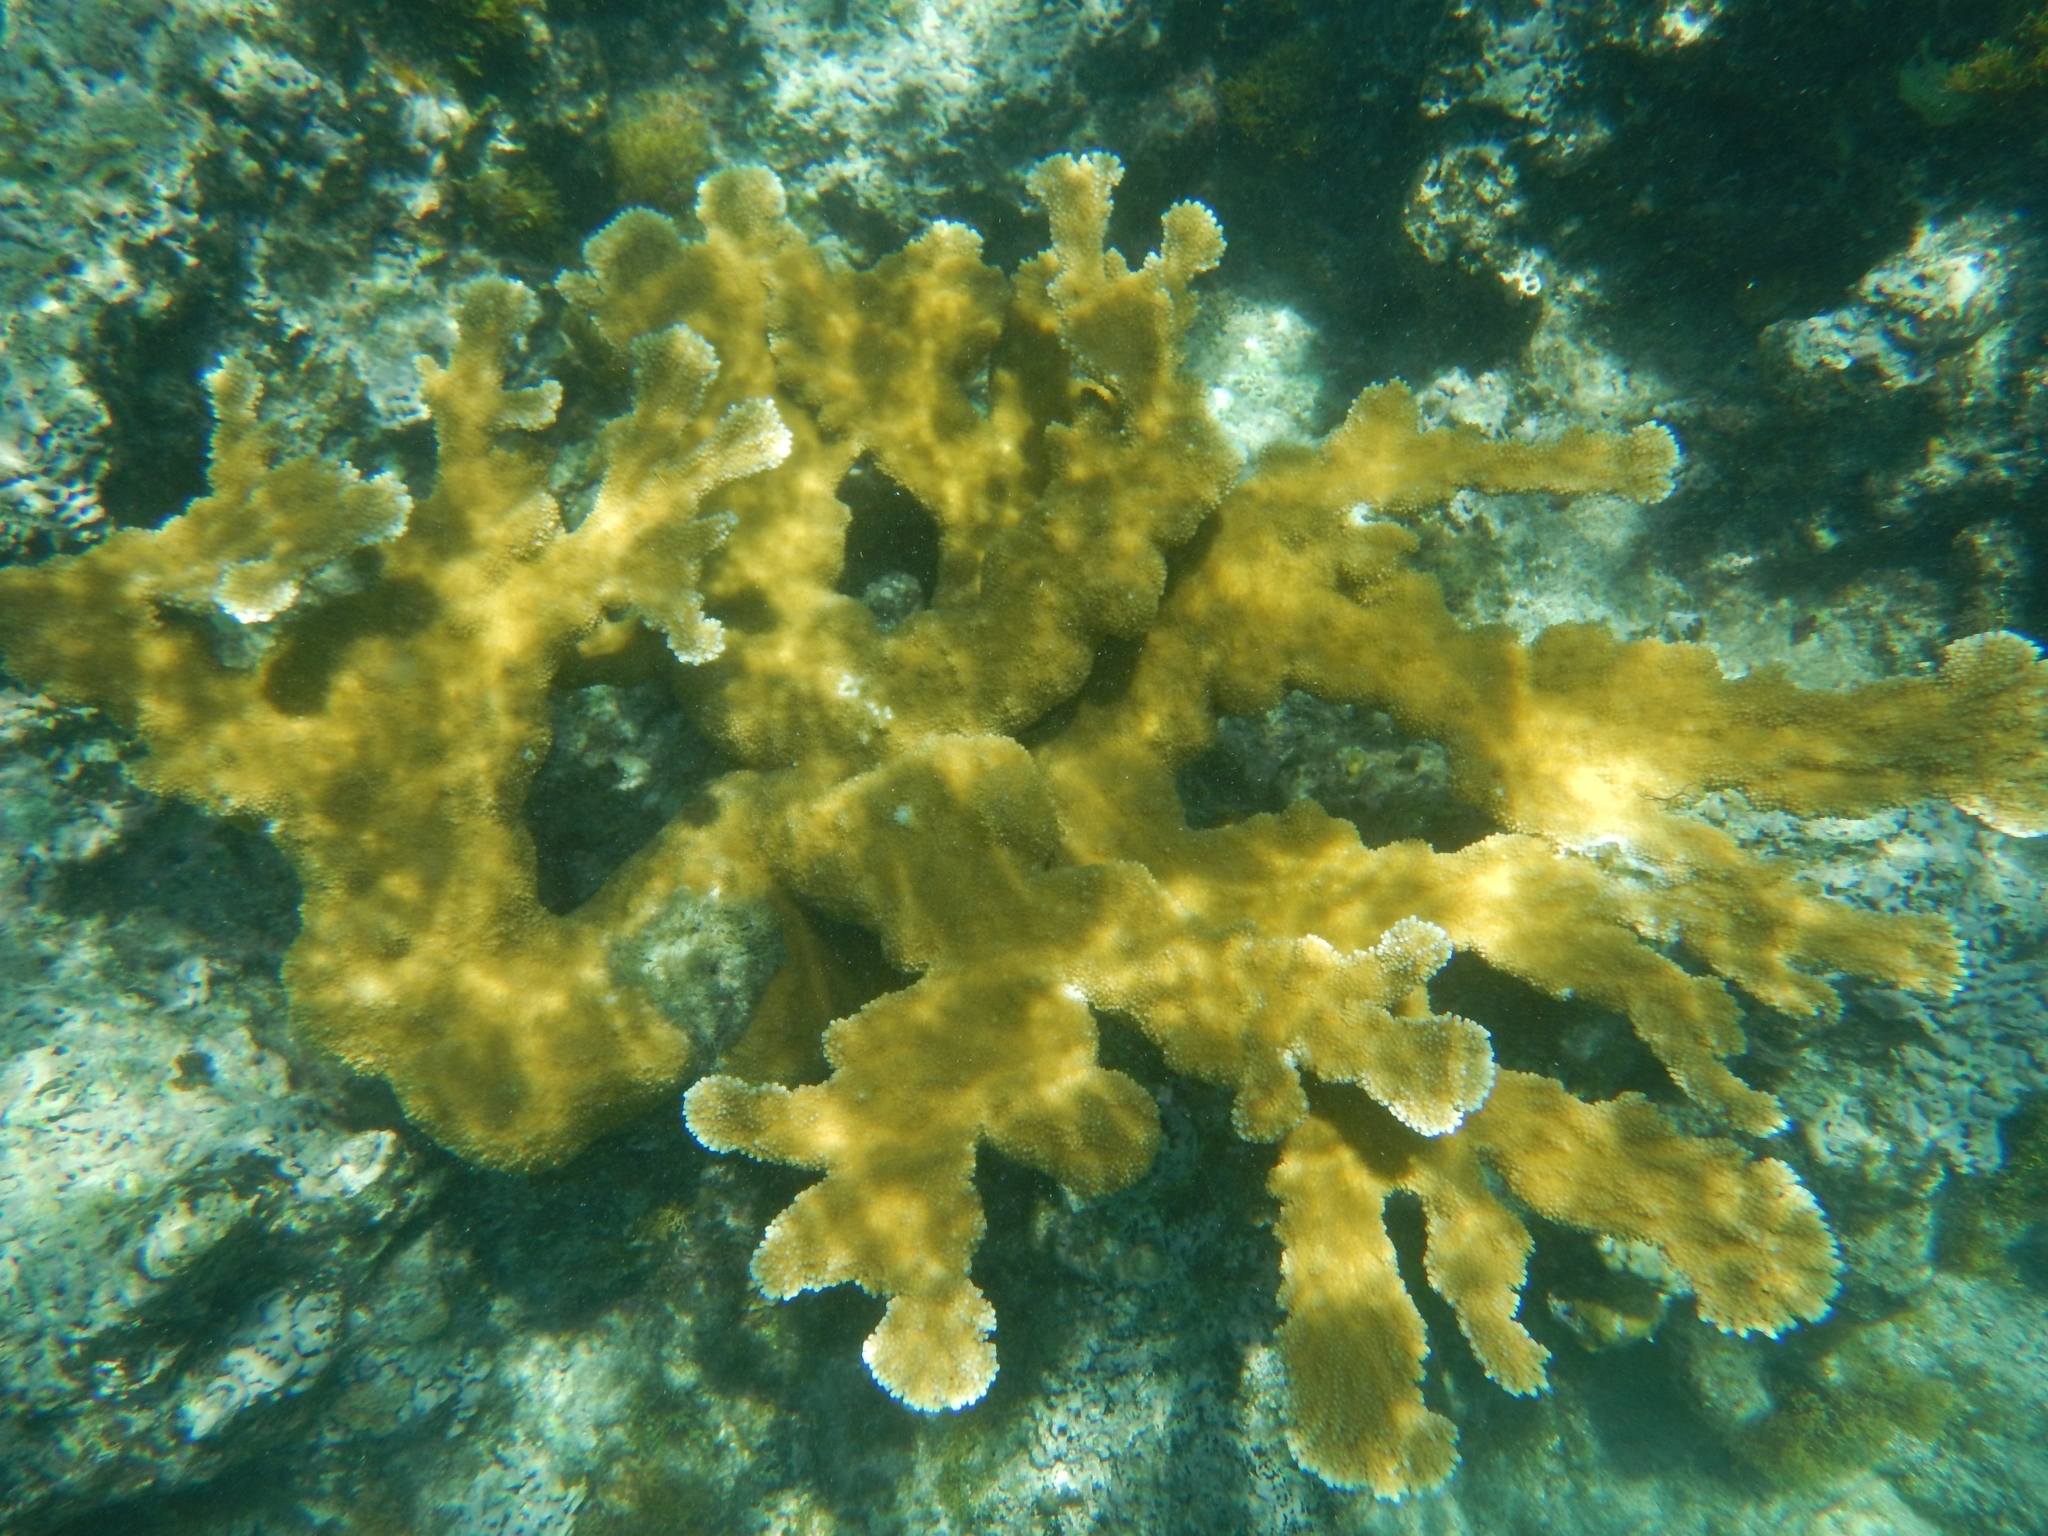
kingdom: Animalia
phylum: Cnidaria
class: Anthozoa
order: Scleractinia
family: Acroporidae
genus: Acropora
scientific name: Acropora palmata
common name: Elkhorn coral
